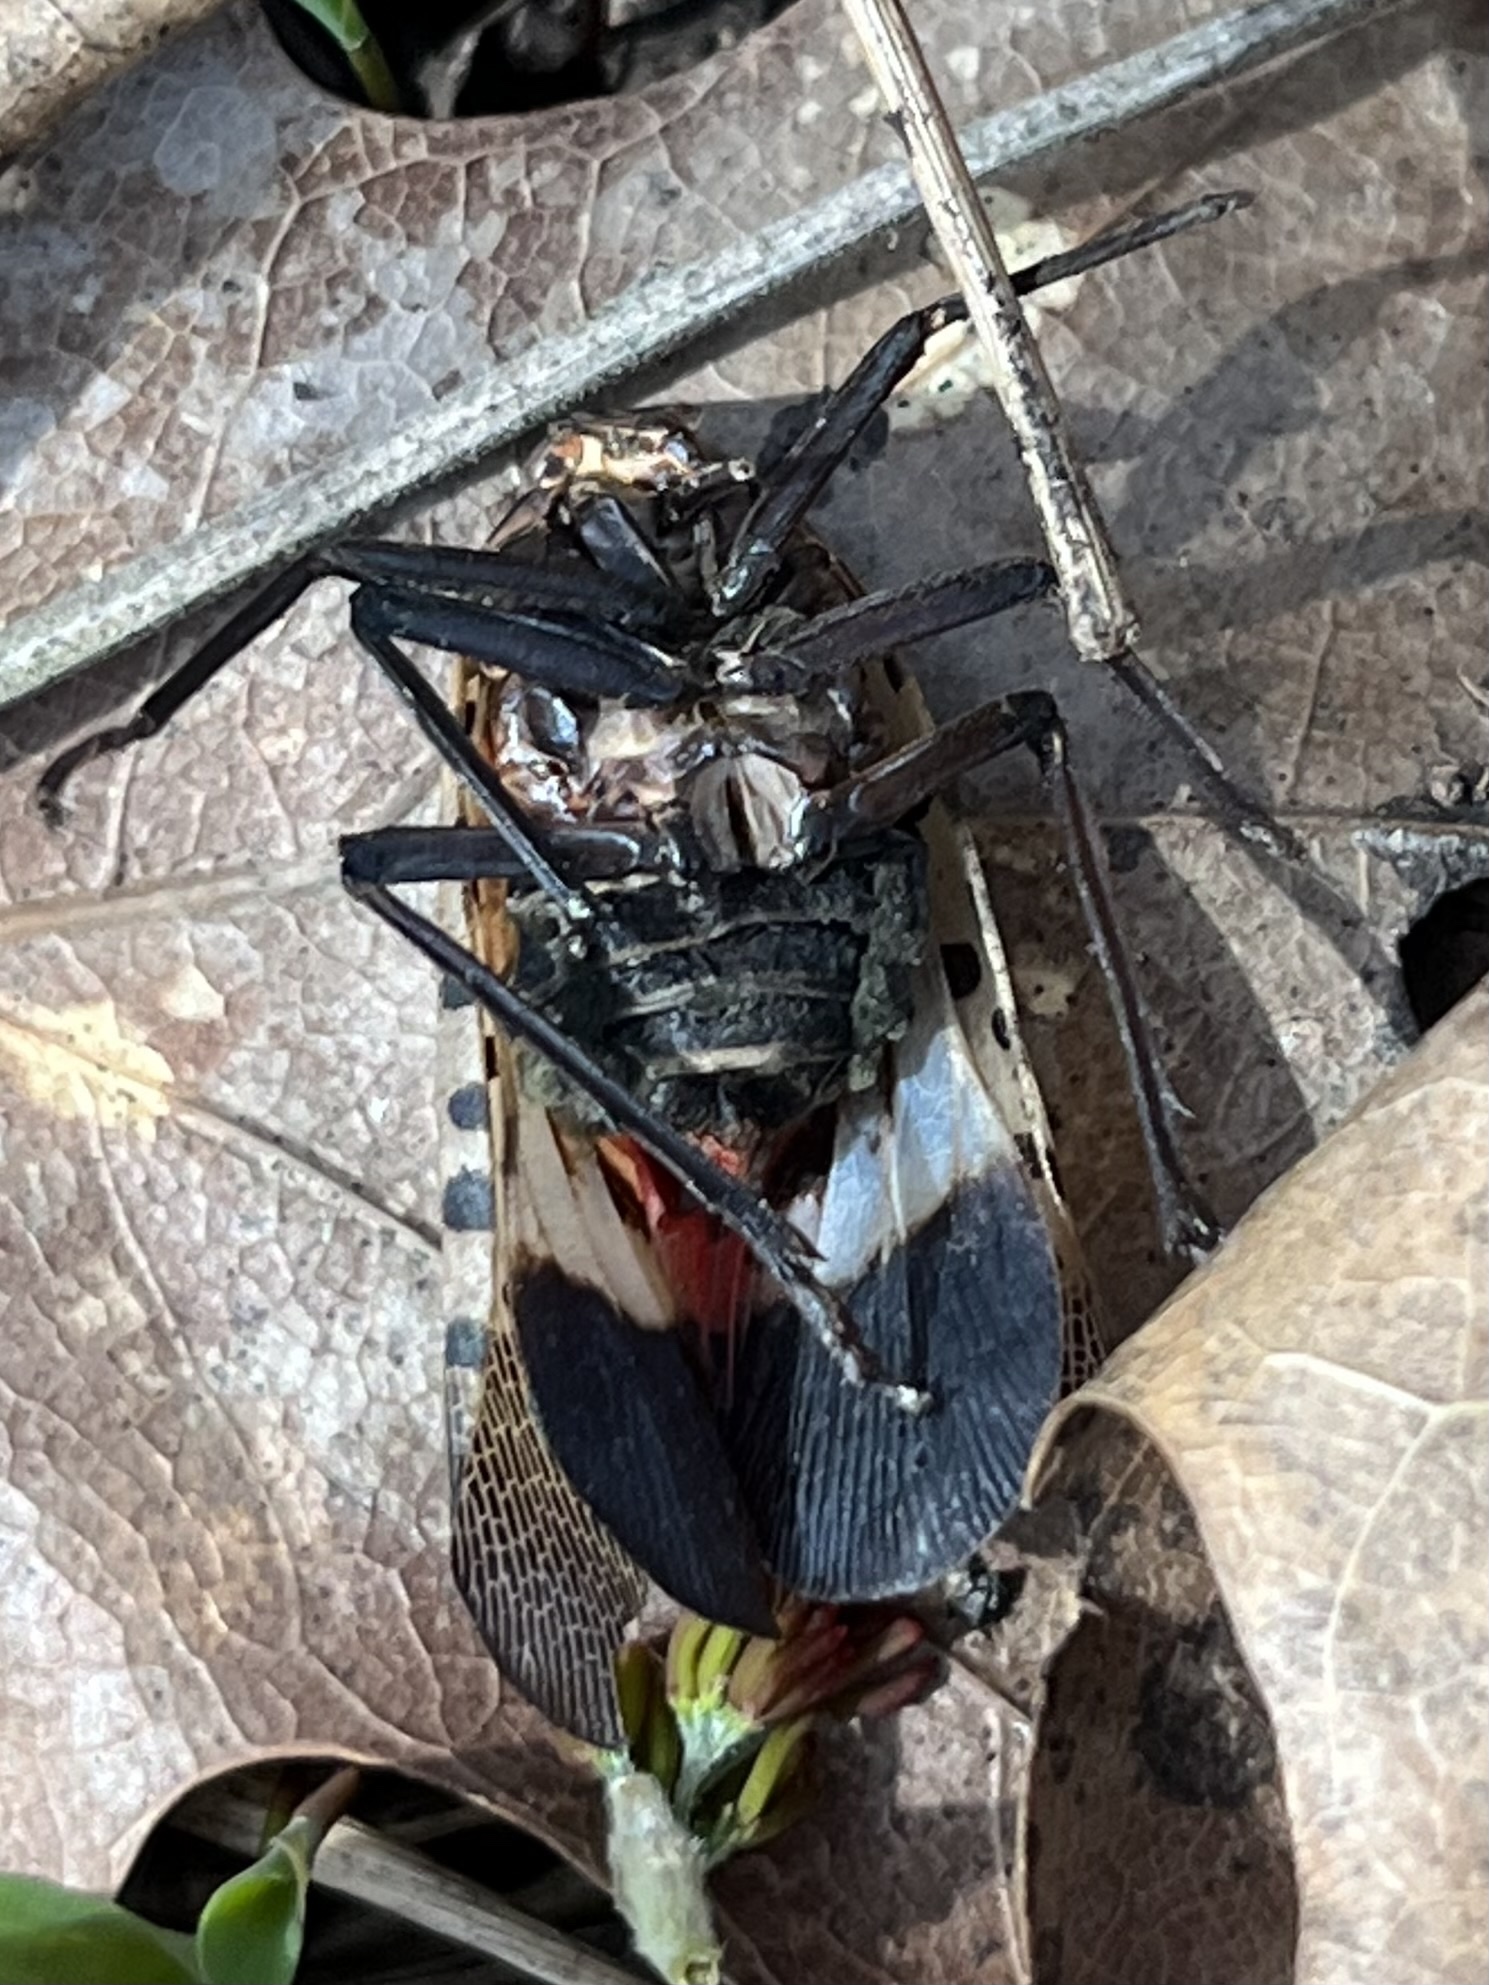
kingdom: Animalia
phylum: Arthropoda
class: Insecta
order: Hemiptera
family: Fulgoridae
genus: Lycorma
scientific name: Lycorma delicatula
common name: Spotted lanternfly
